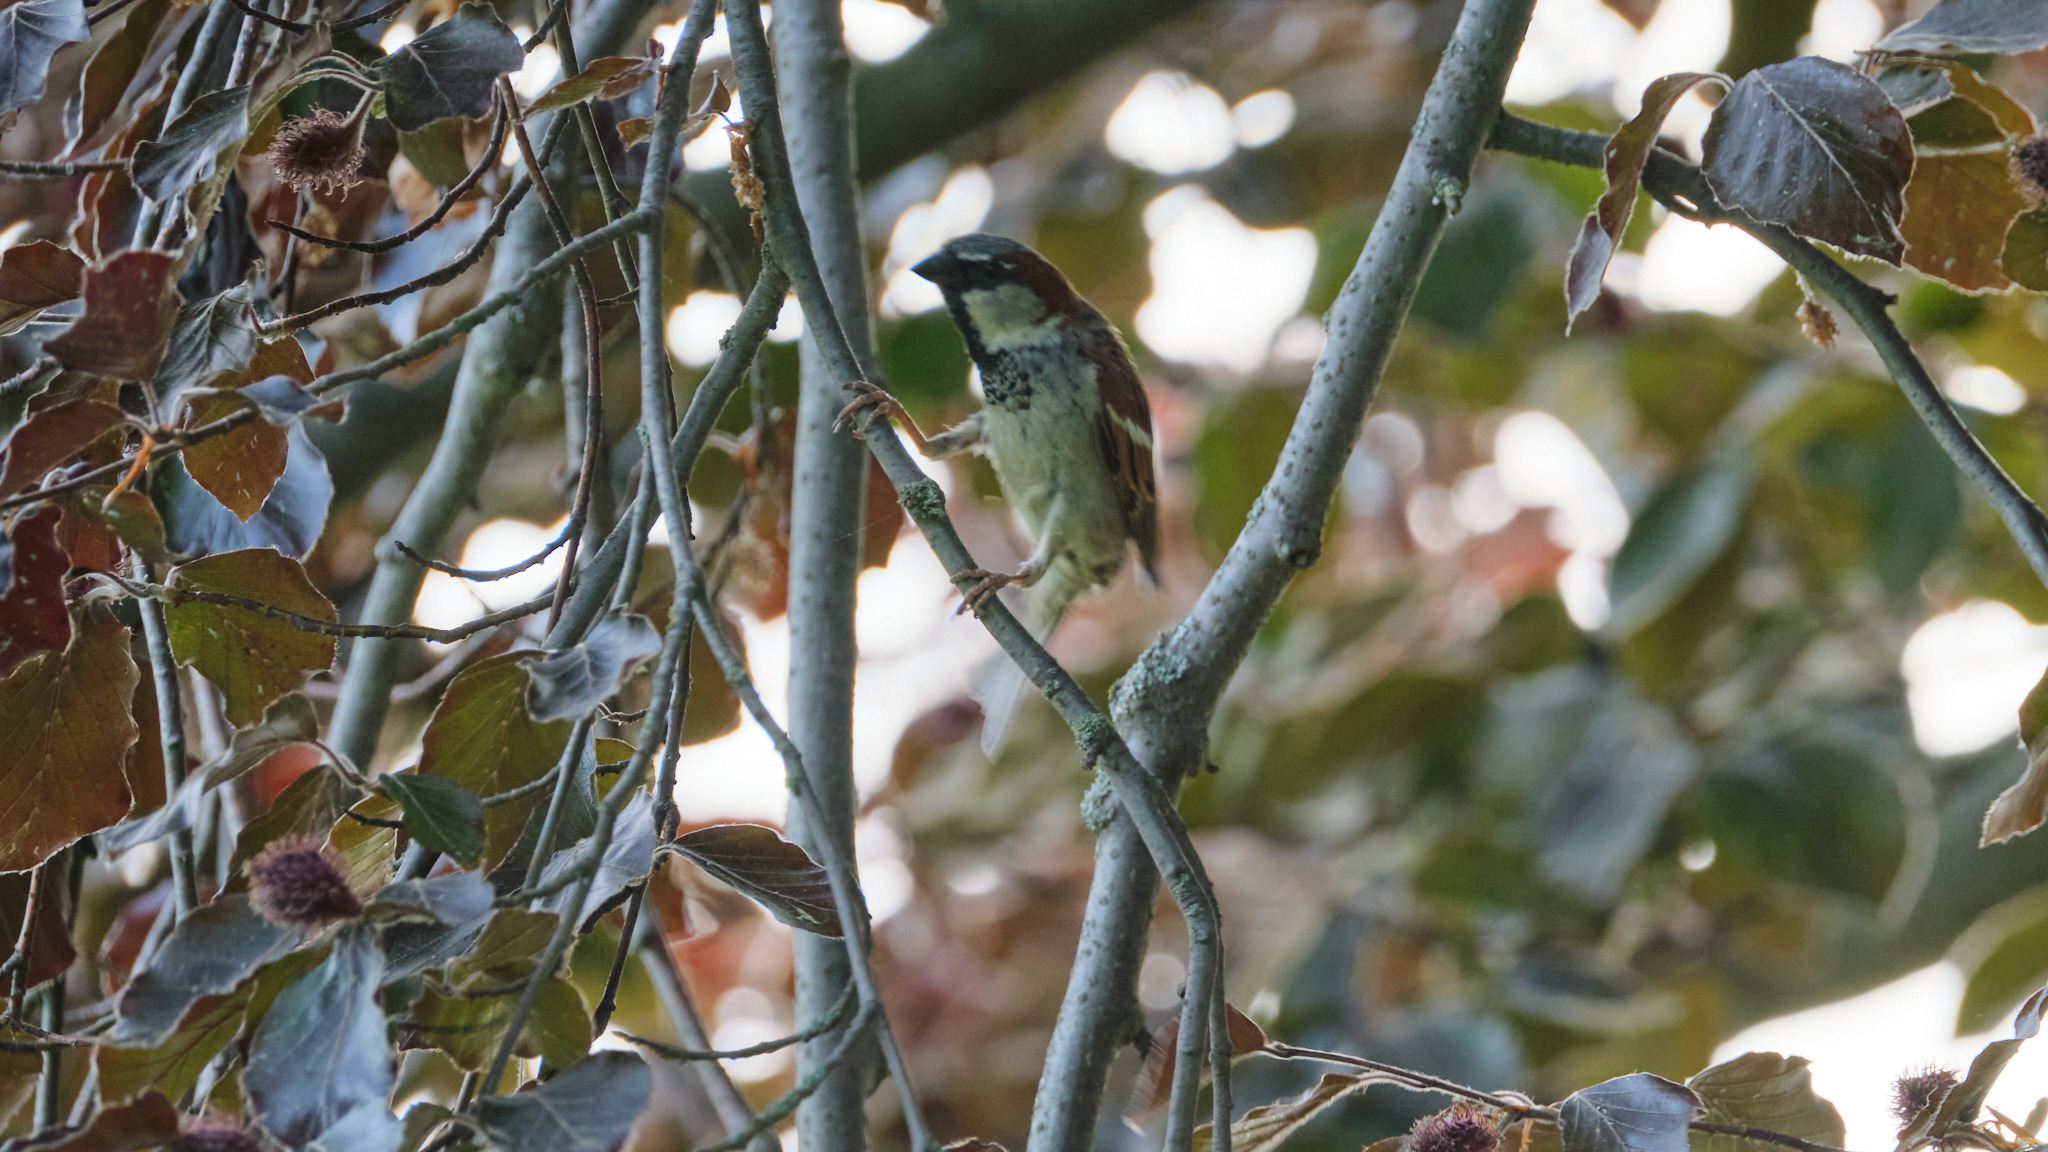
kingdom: Animalia
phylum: Chordata
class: Aves
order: Passeriformes
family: Passeridae
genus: Passer
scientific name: Passer domesticus
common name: House sparrow
